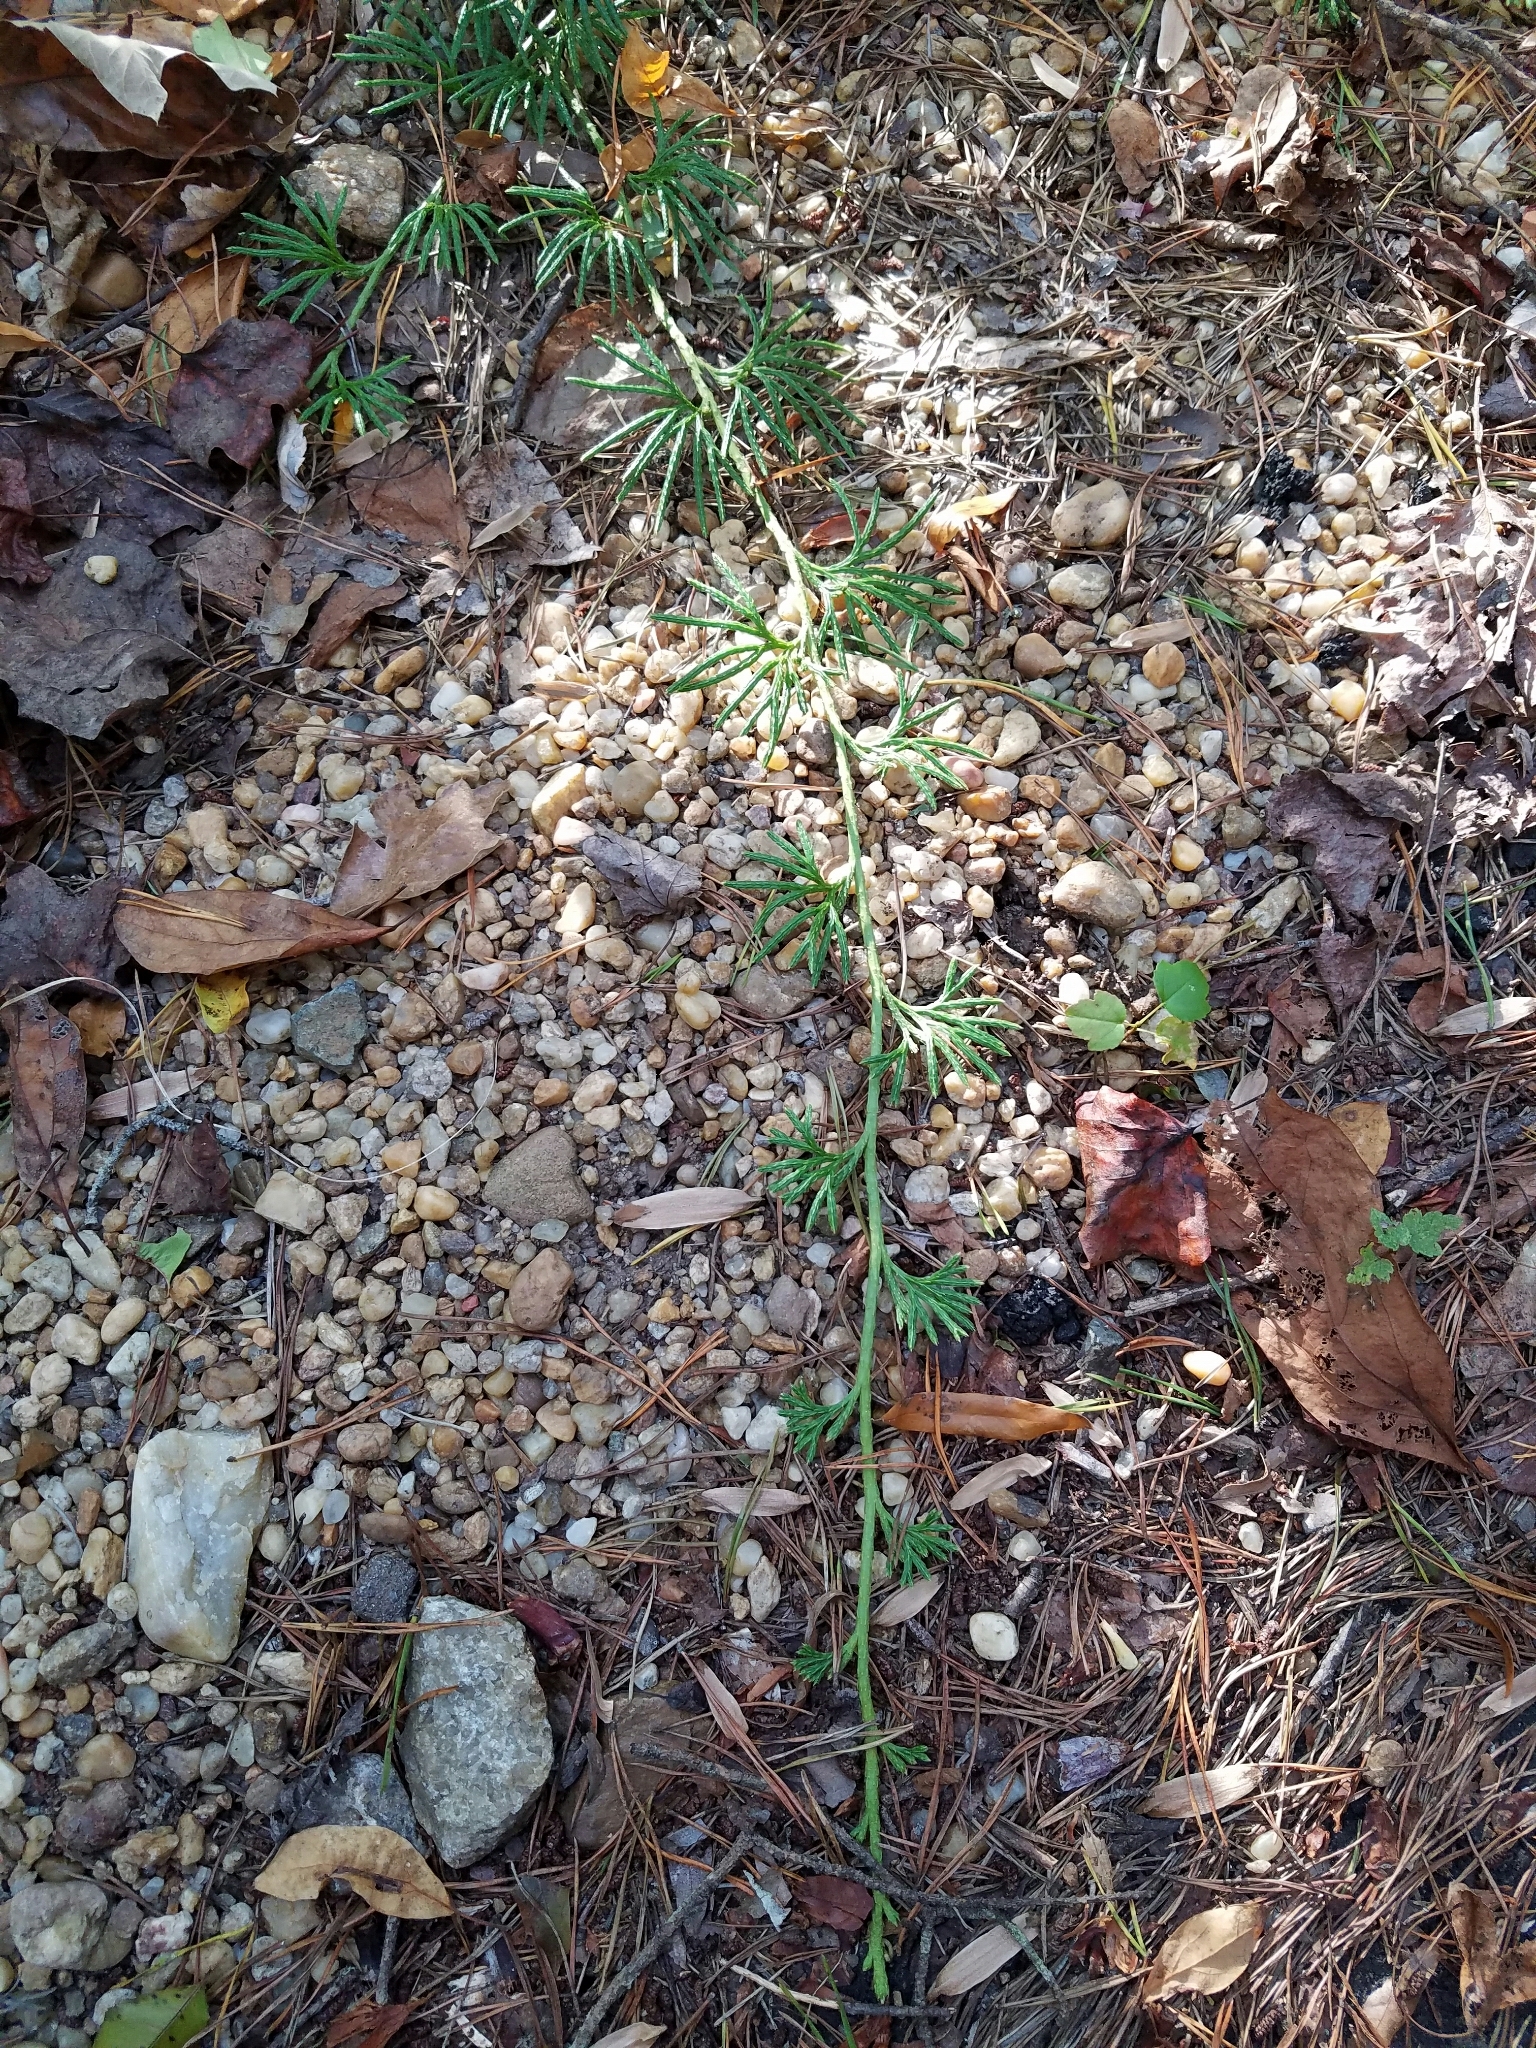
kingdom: Plantae
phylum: Tracheophyta
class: Lycopodiopsida
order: Lycopodiales
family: Lycopodiaceae
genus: Diphasiastrum
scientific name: Diphasiastrum digitatum
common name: Southern running-pine
